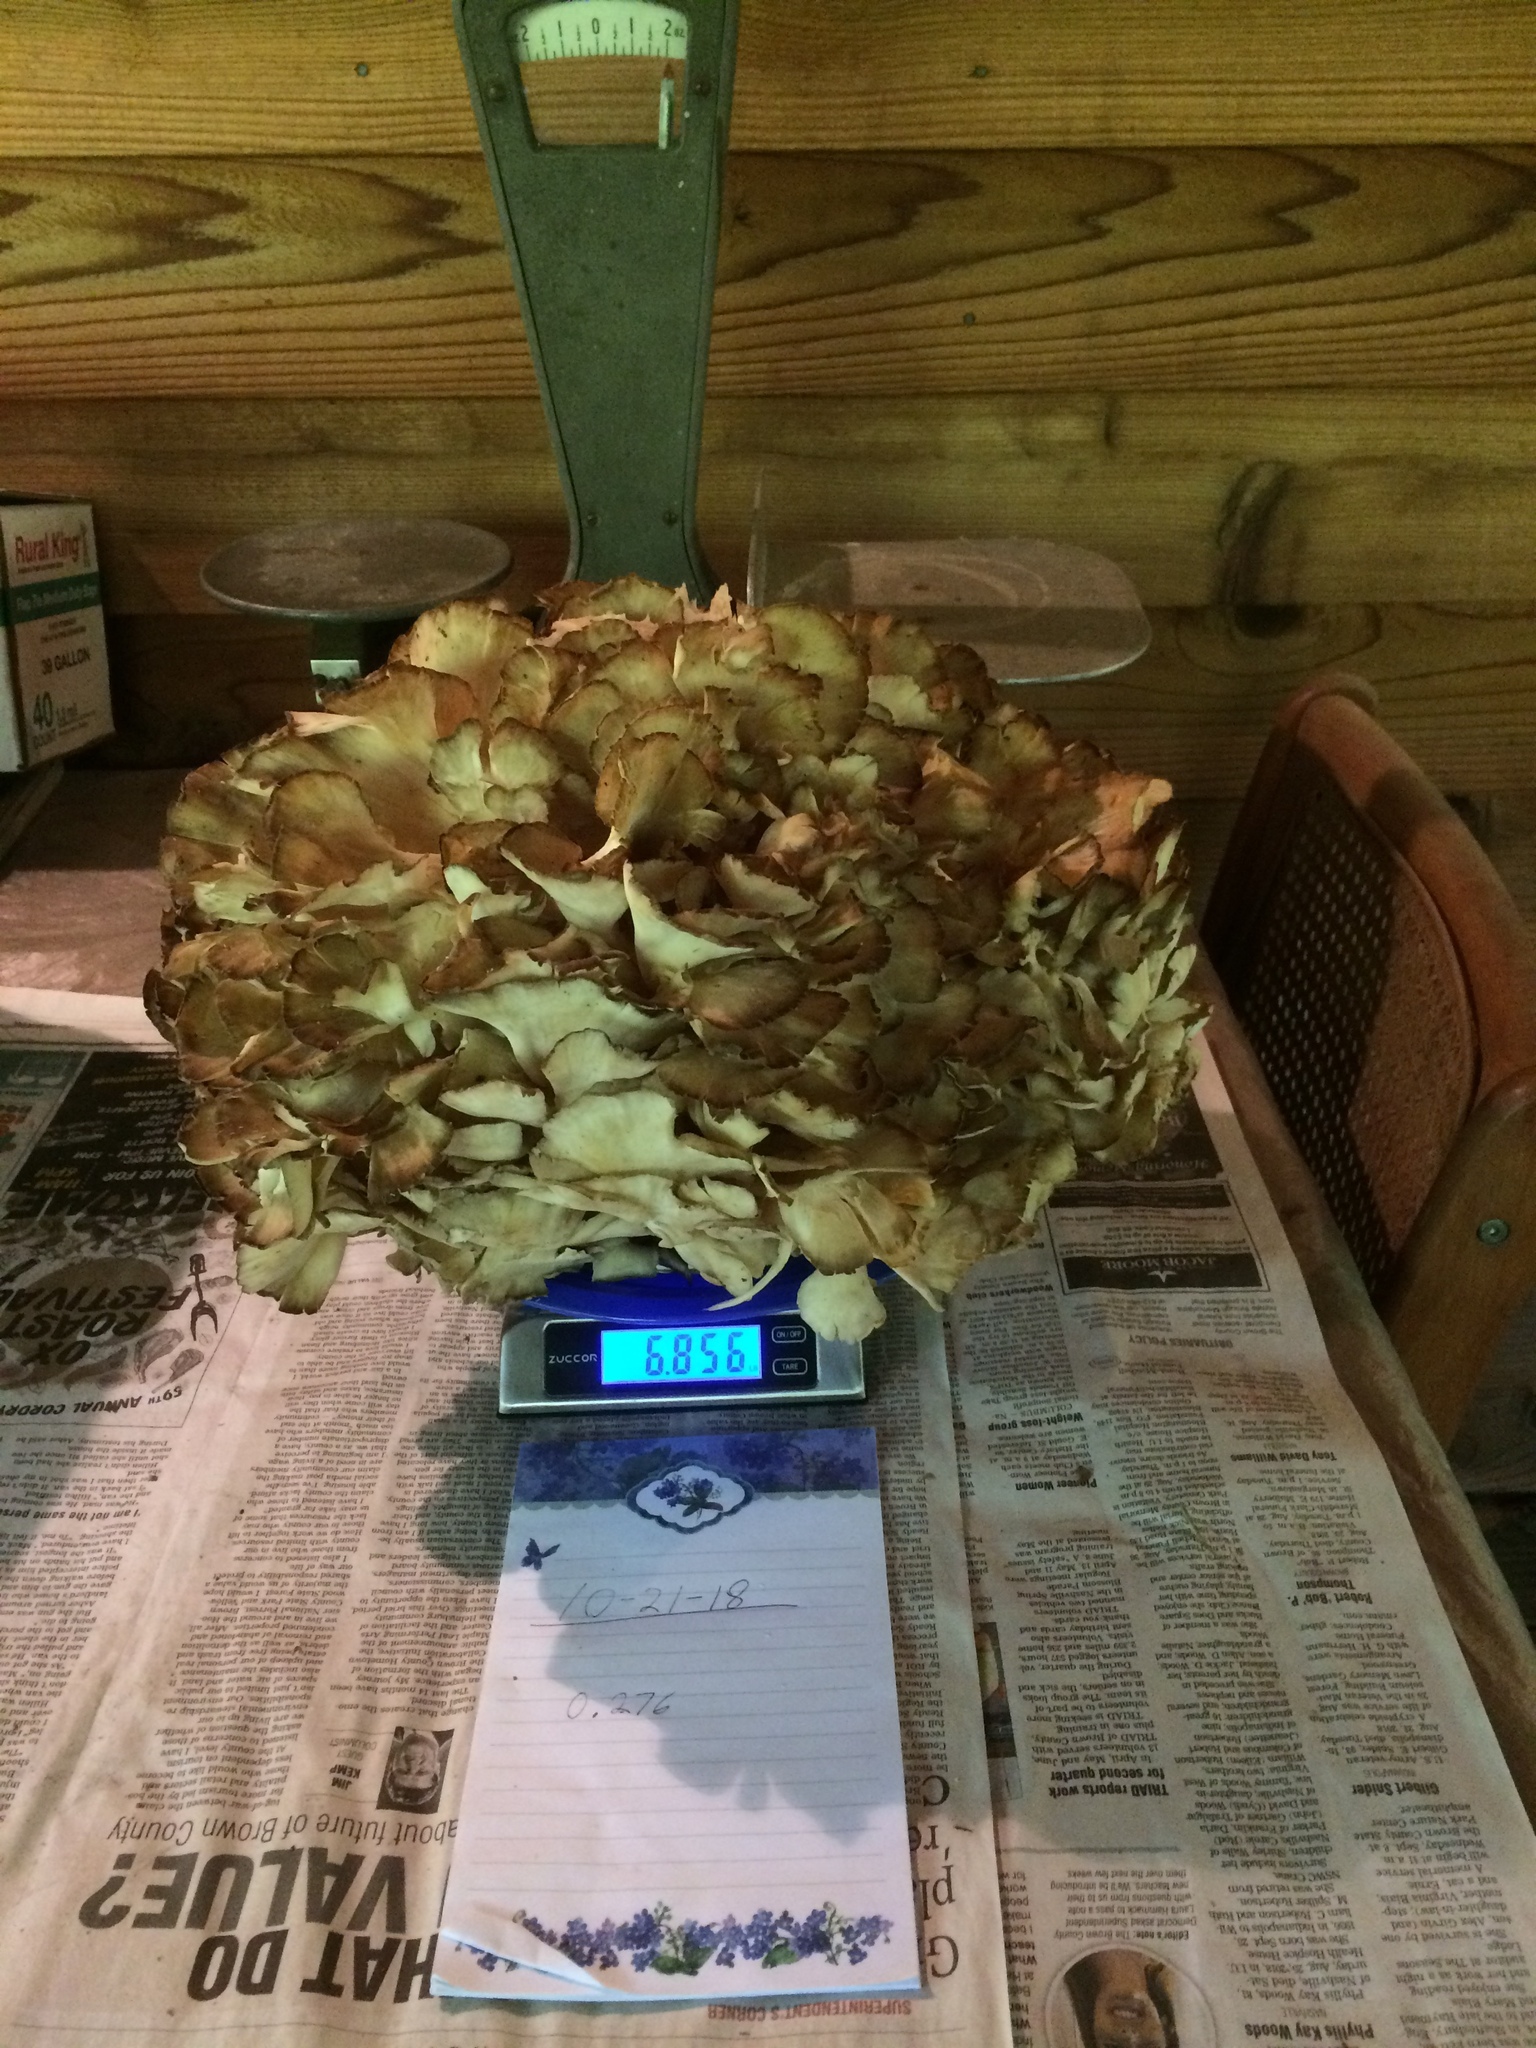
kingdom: Fungi
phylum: Basidiomycota
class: Agaricomycetes
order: Polyporales
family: Grifolaceae
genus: Grifola
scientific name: Grifola frondosa
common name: Hen of the woods
